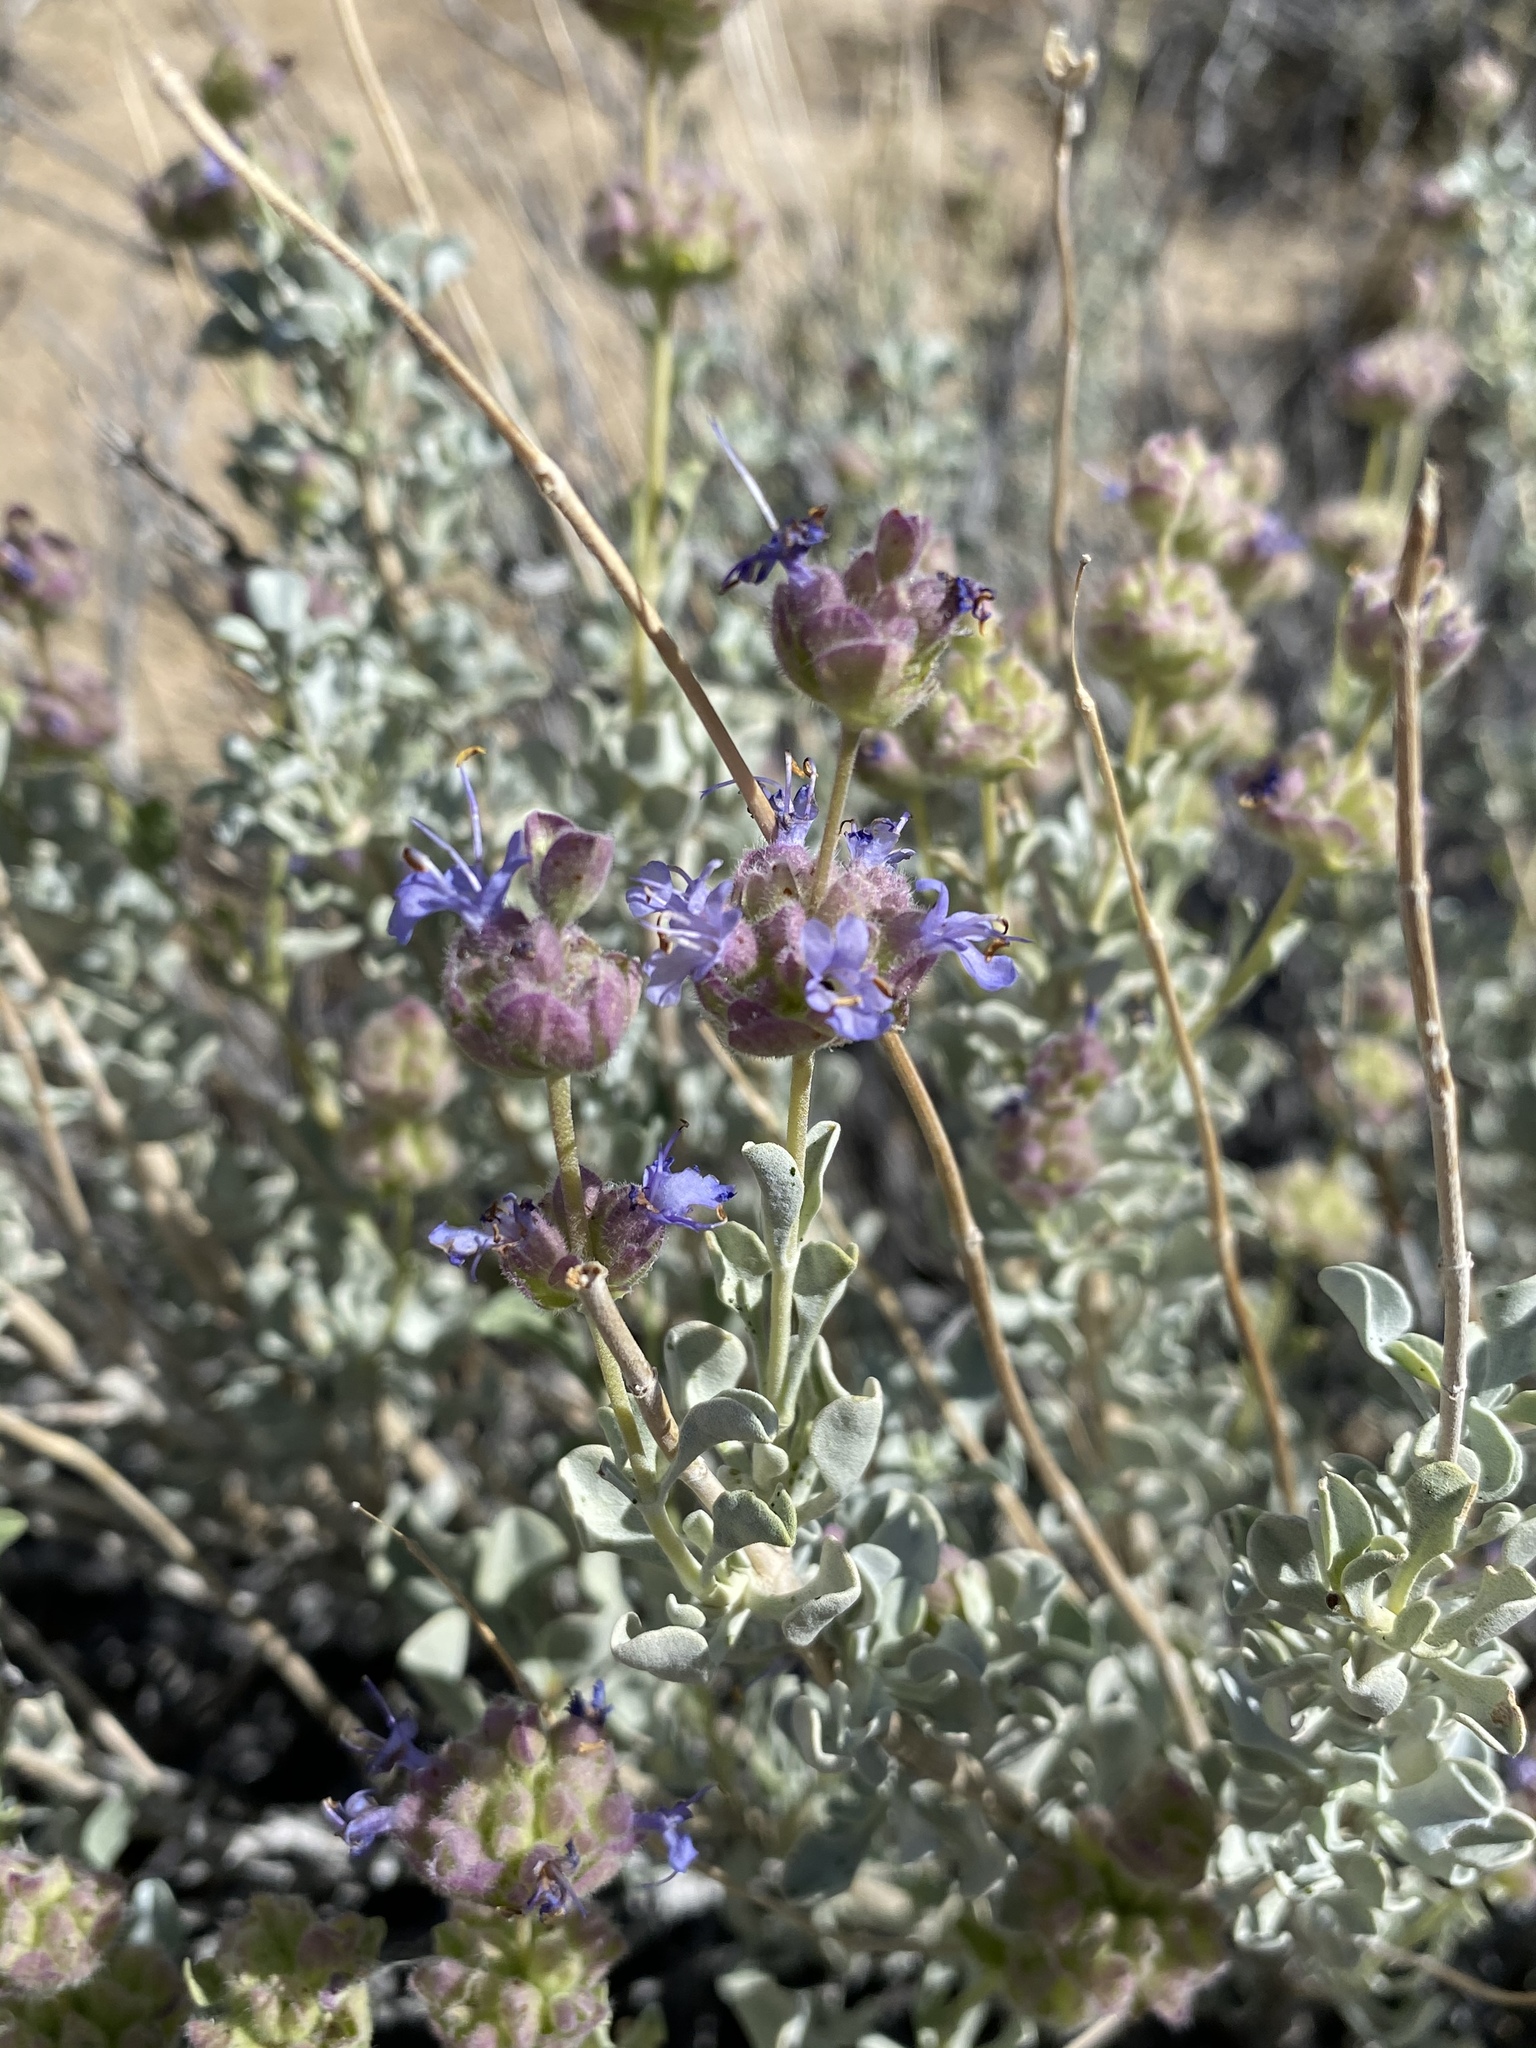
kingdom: Plantae
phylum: Tracheophyta
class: Magnoliopsida
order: Lamiales
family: Lamiaceae
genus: Salvia
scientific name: Salvia dorrii
